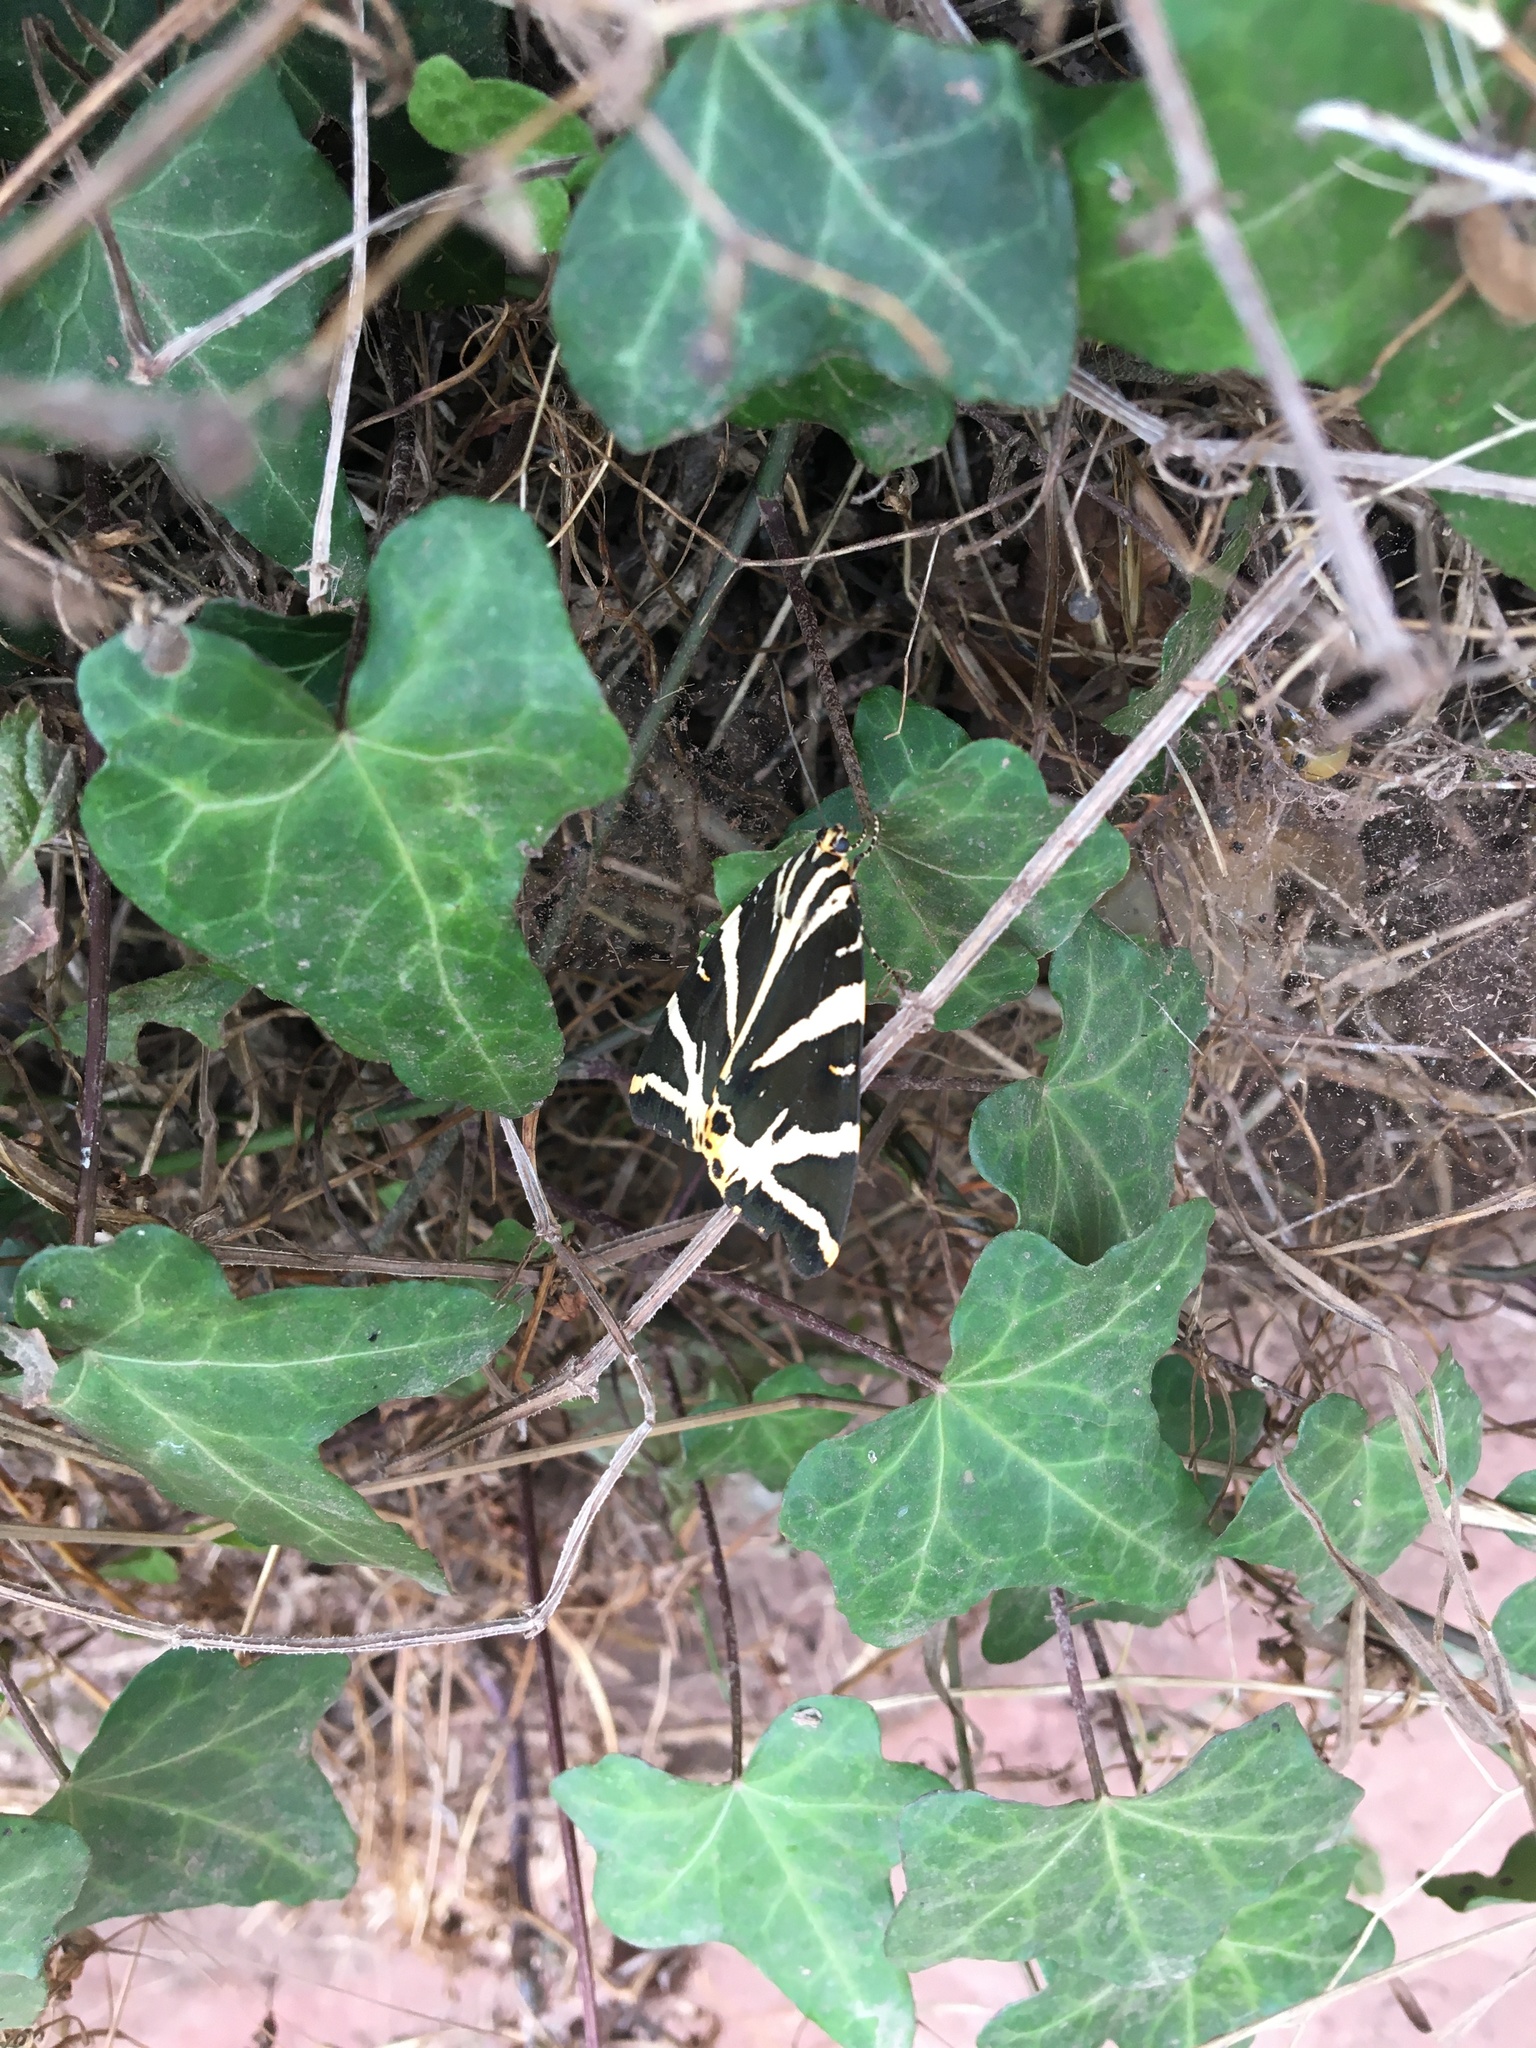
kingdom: Animalia
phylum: Arthropoda
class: Insecta
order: Lepidoptera
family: Erebidae
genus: Euplagia
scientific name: Euplagia quadripunctaria
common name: Jersey tiger
